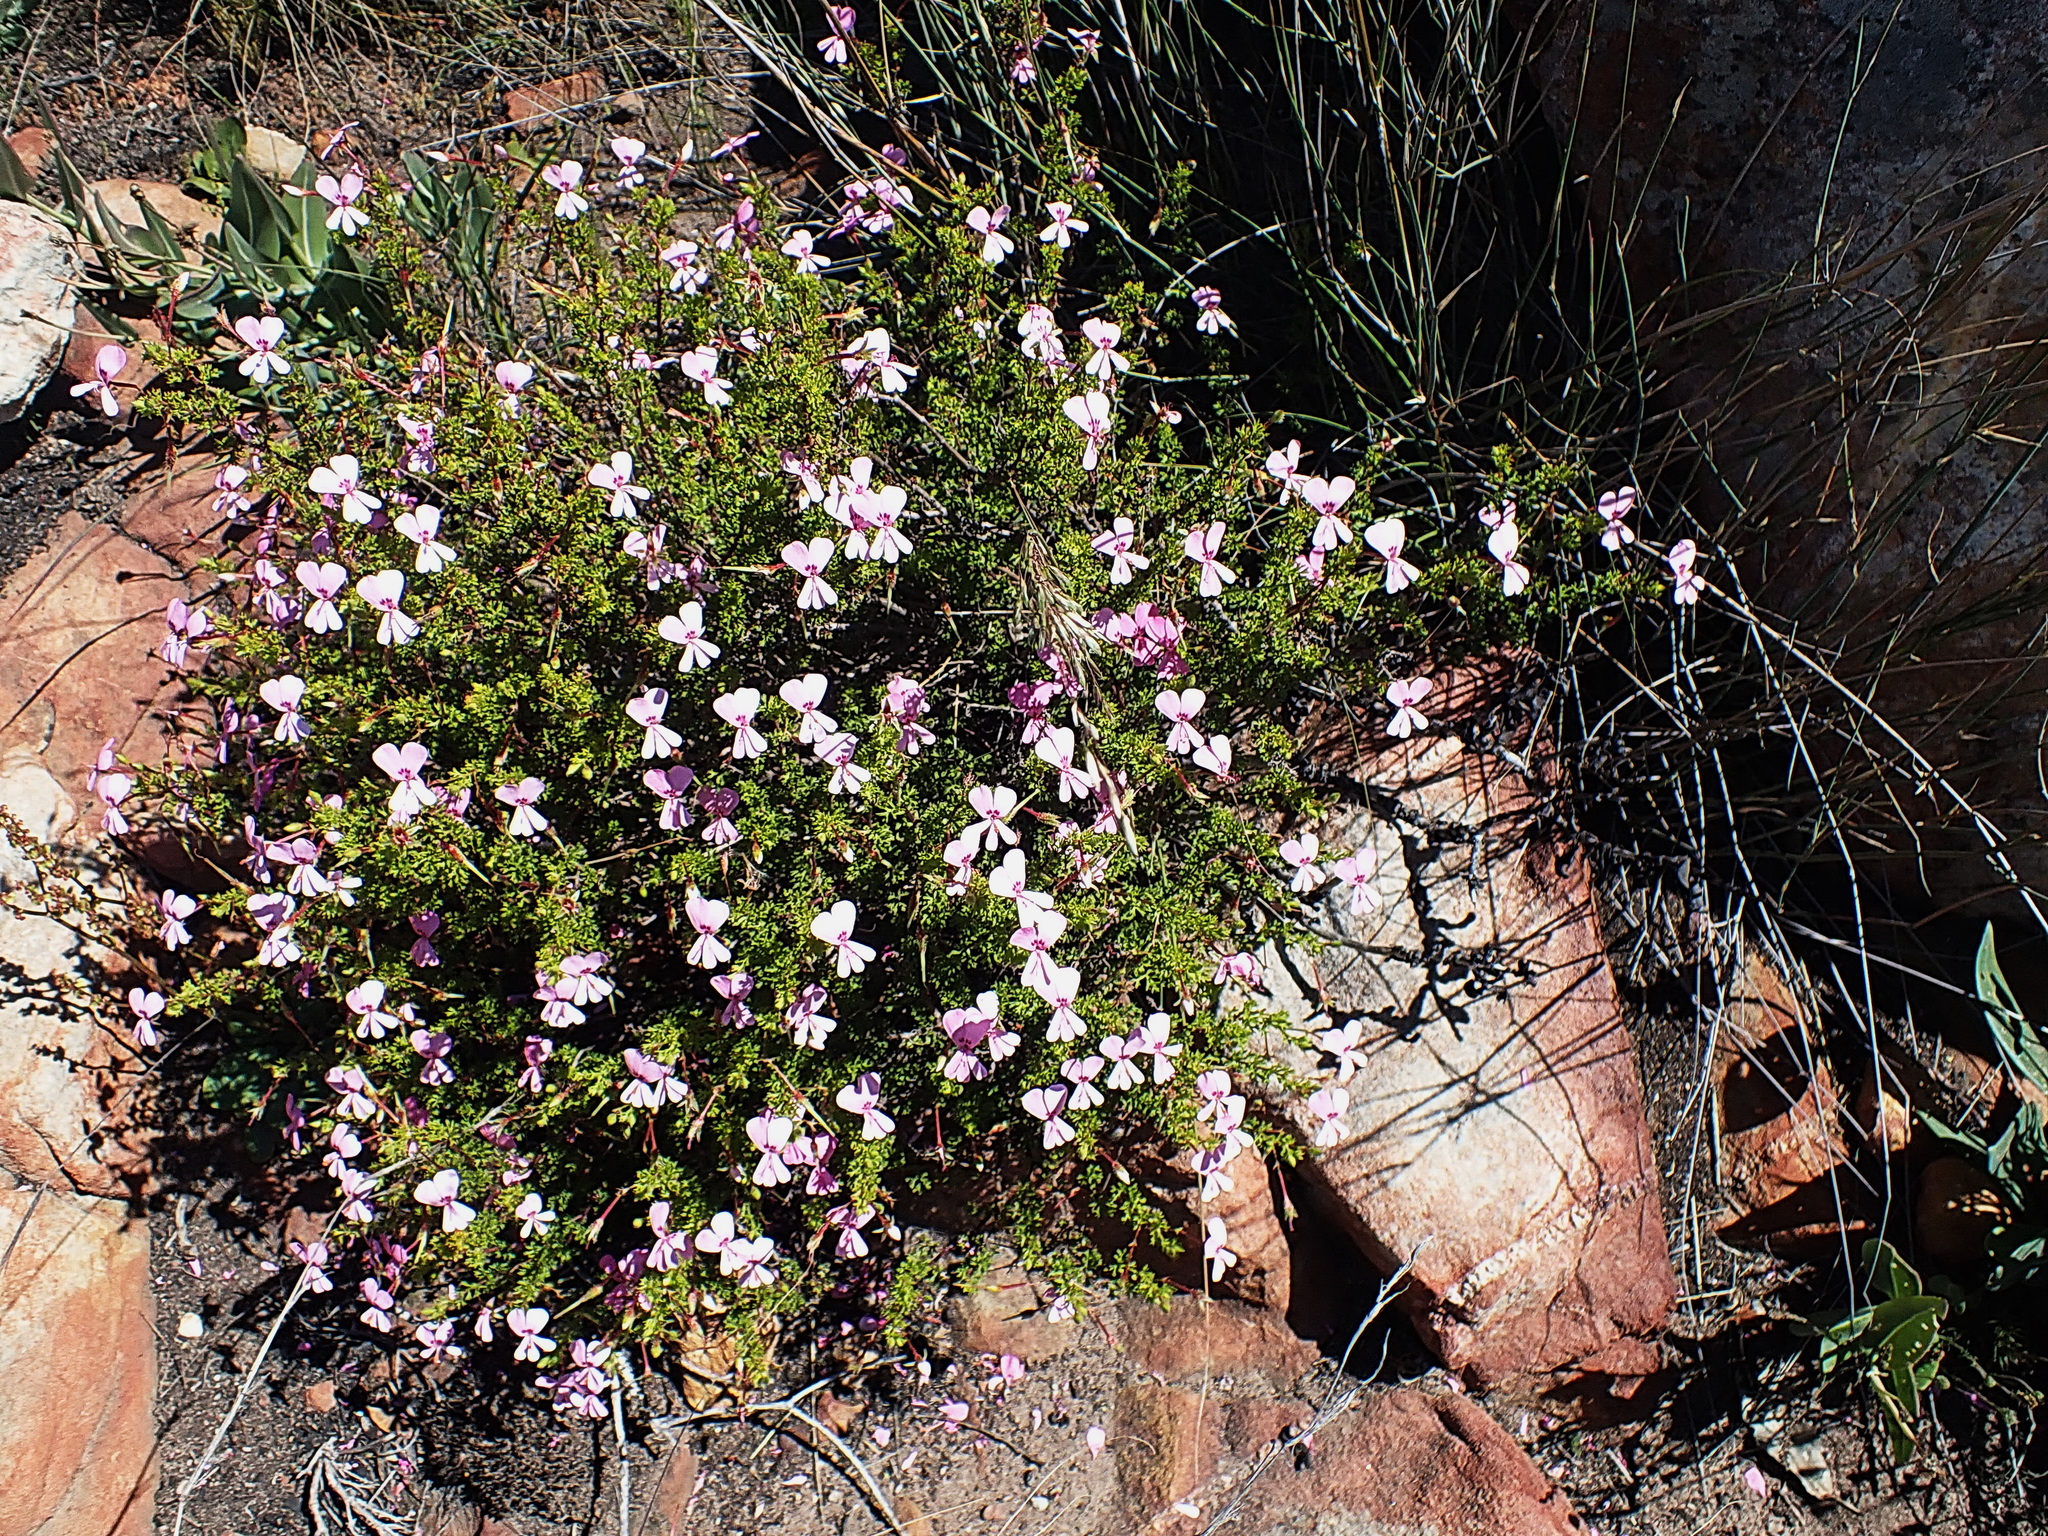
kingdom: Plantae
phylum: Tracheophyta
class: Magnoliopsida
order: Geraniales
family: Geraniaceae
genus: Pelargonium
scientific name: Pelargonium fruticosum
